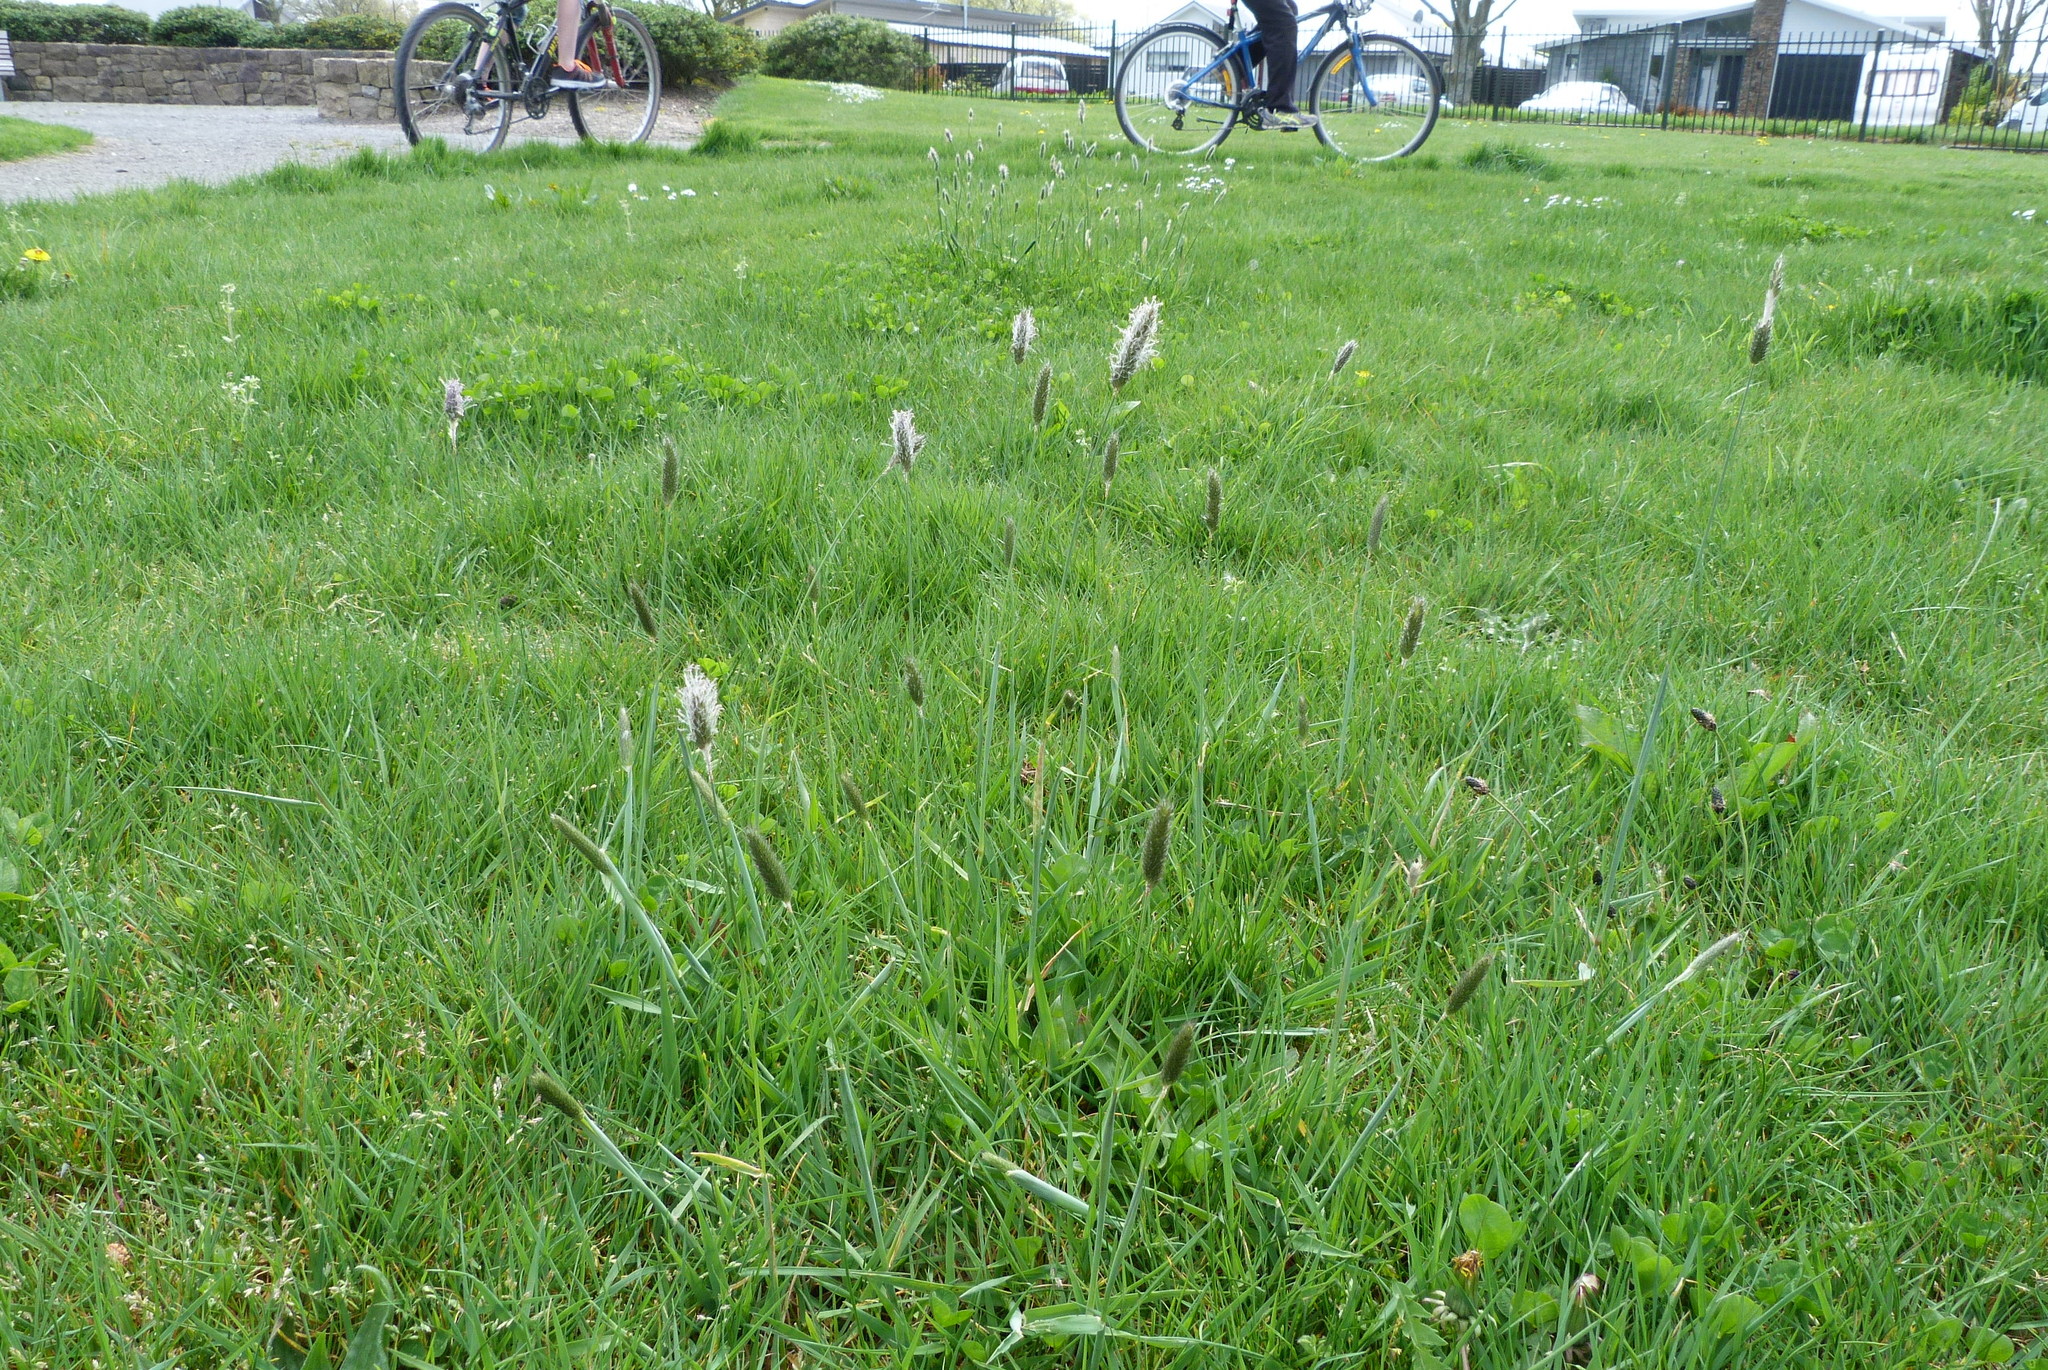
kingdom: Plantae
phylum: Tracheophyta
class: Liliopsida
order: Poales
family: Poaceae
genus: Alopecurus
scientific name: Alopecurus geniculatus
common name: Water foxtail
